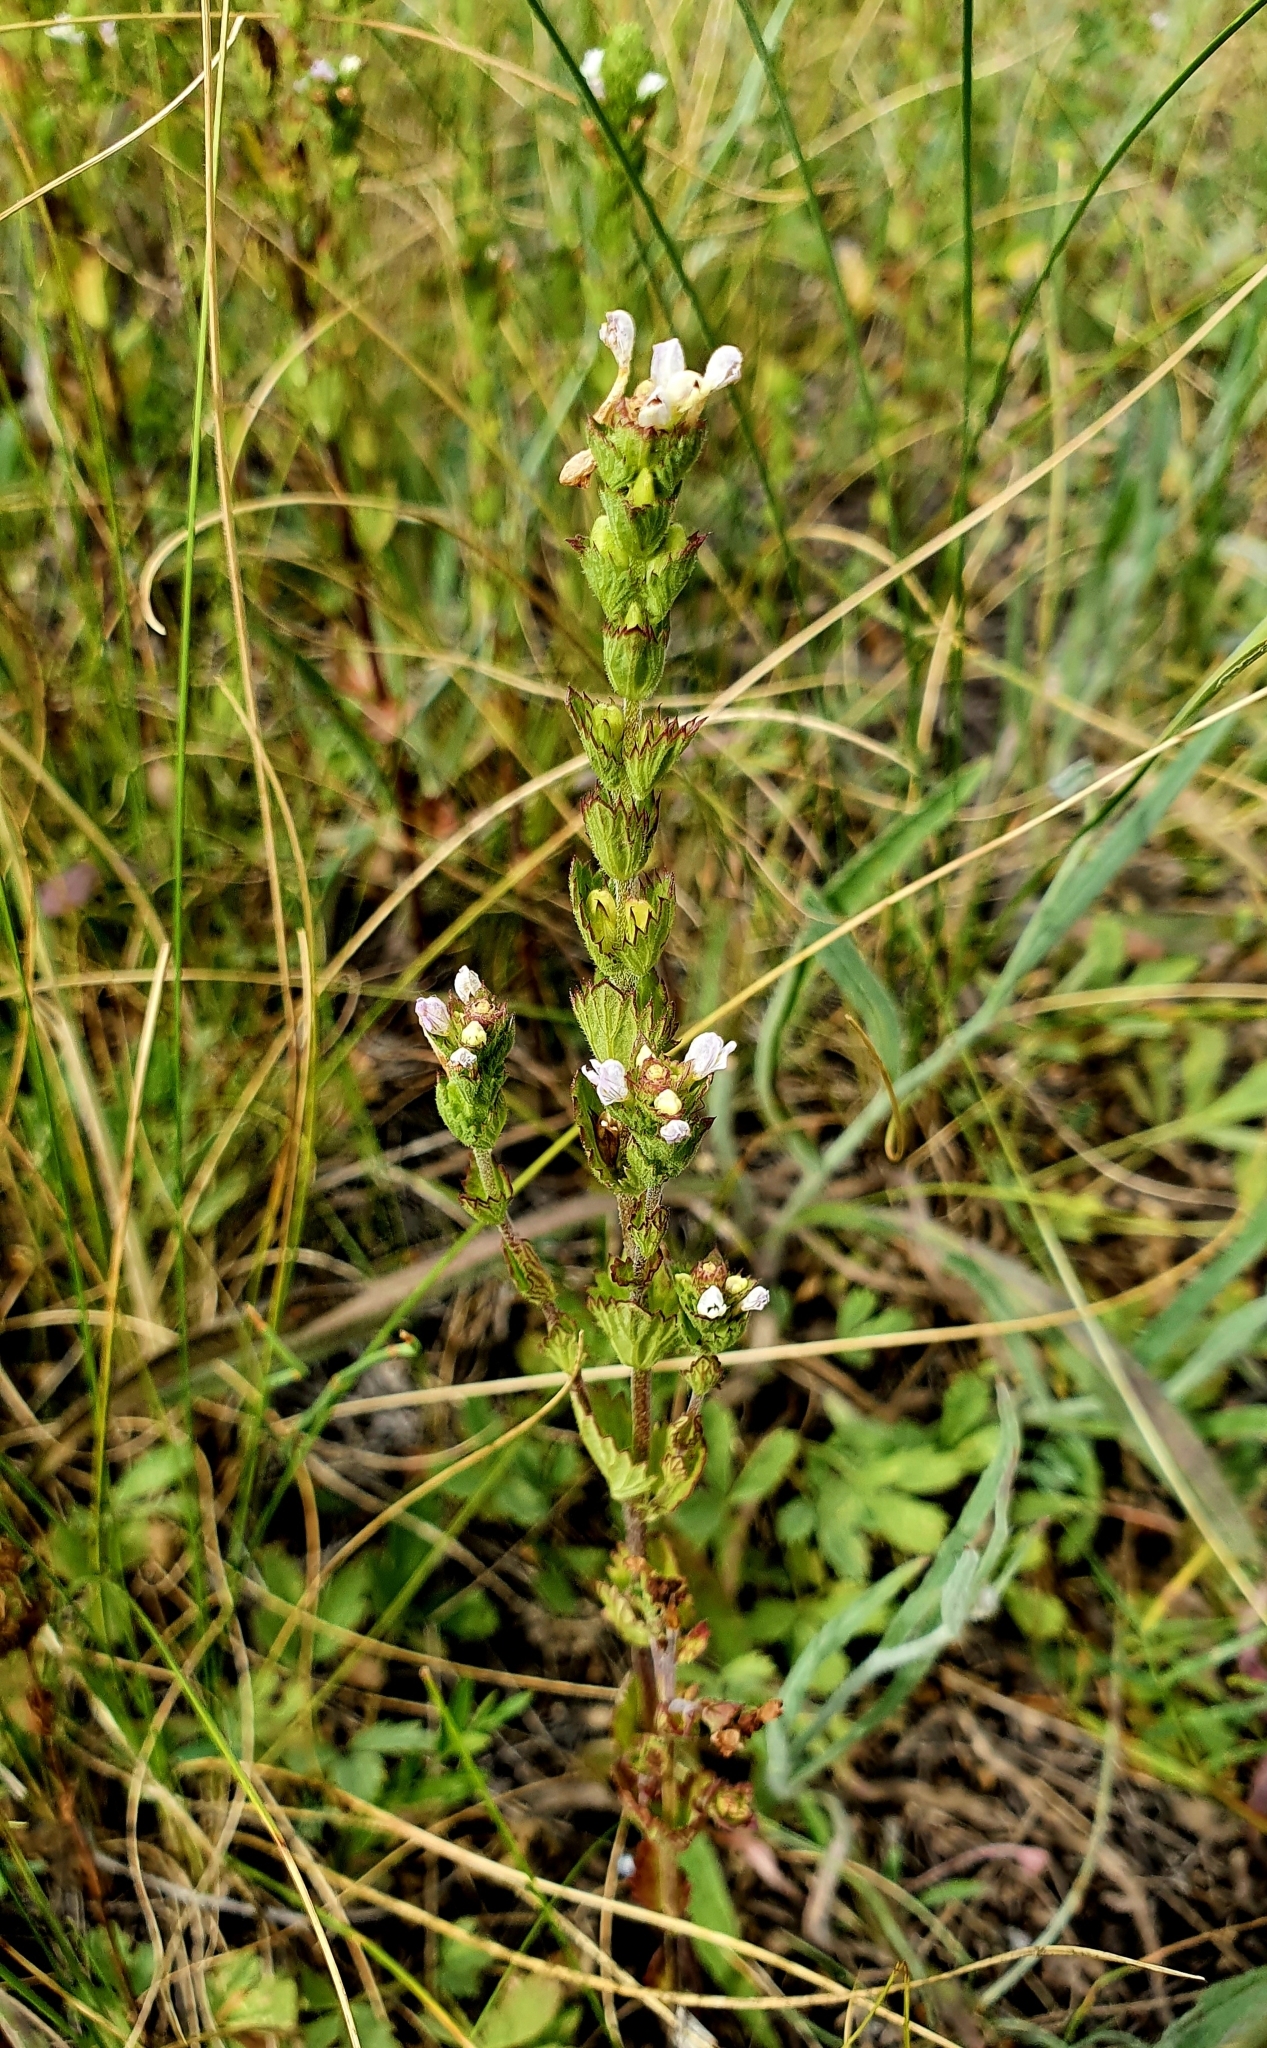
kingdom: Plantae
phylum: Tracheophyta
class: Magnoliopsida
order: Lamiales
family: Orobanchaceae
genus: Euphrasia
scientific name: Euphrasia stricta
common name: Drug eyebright
